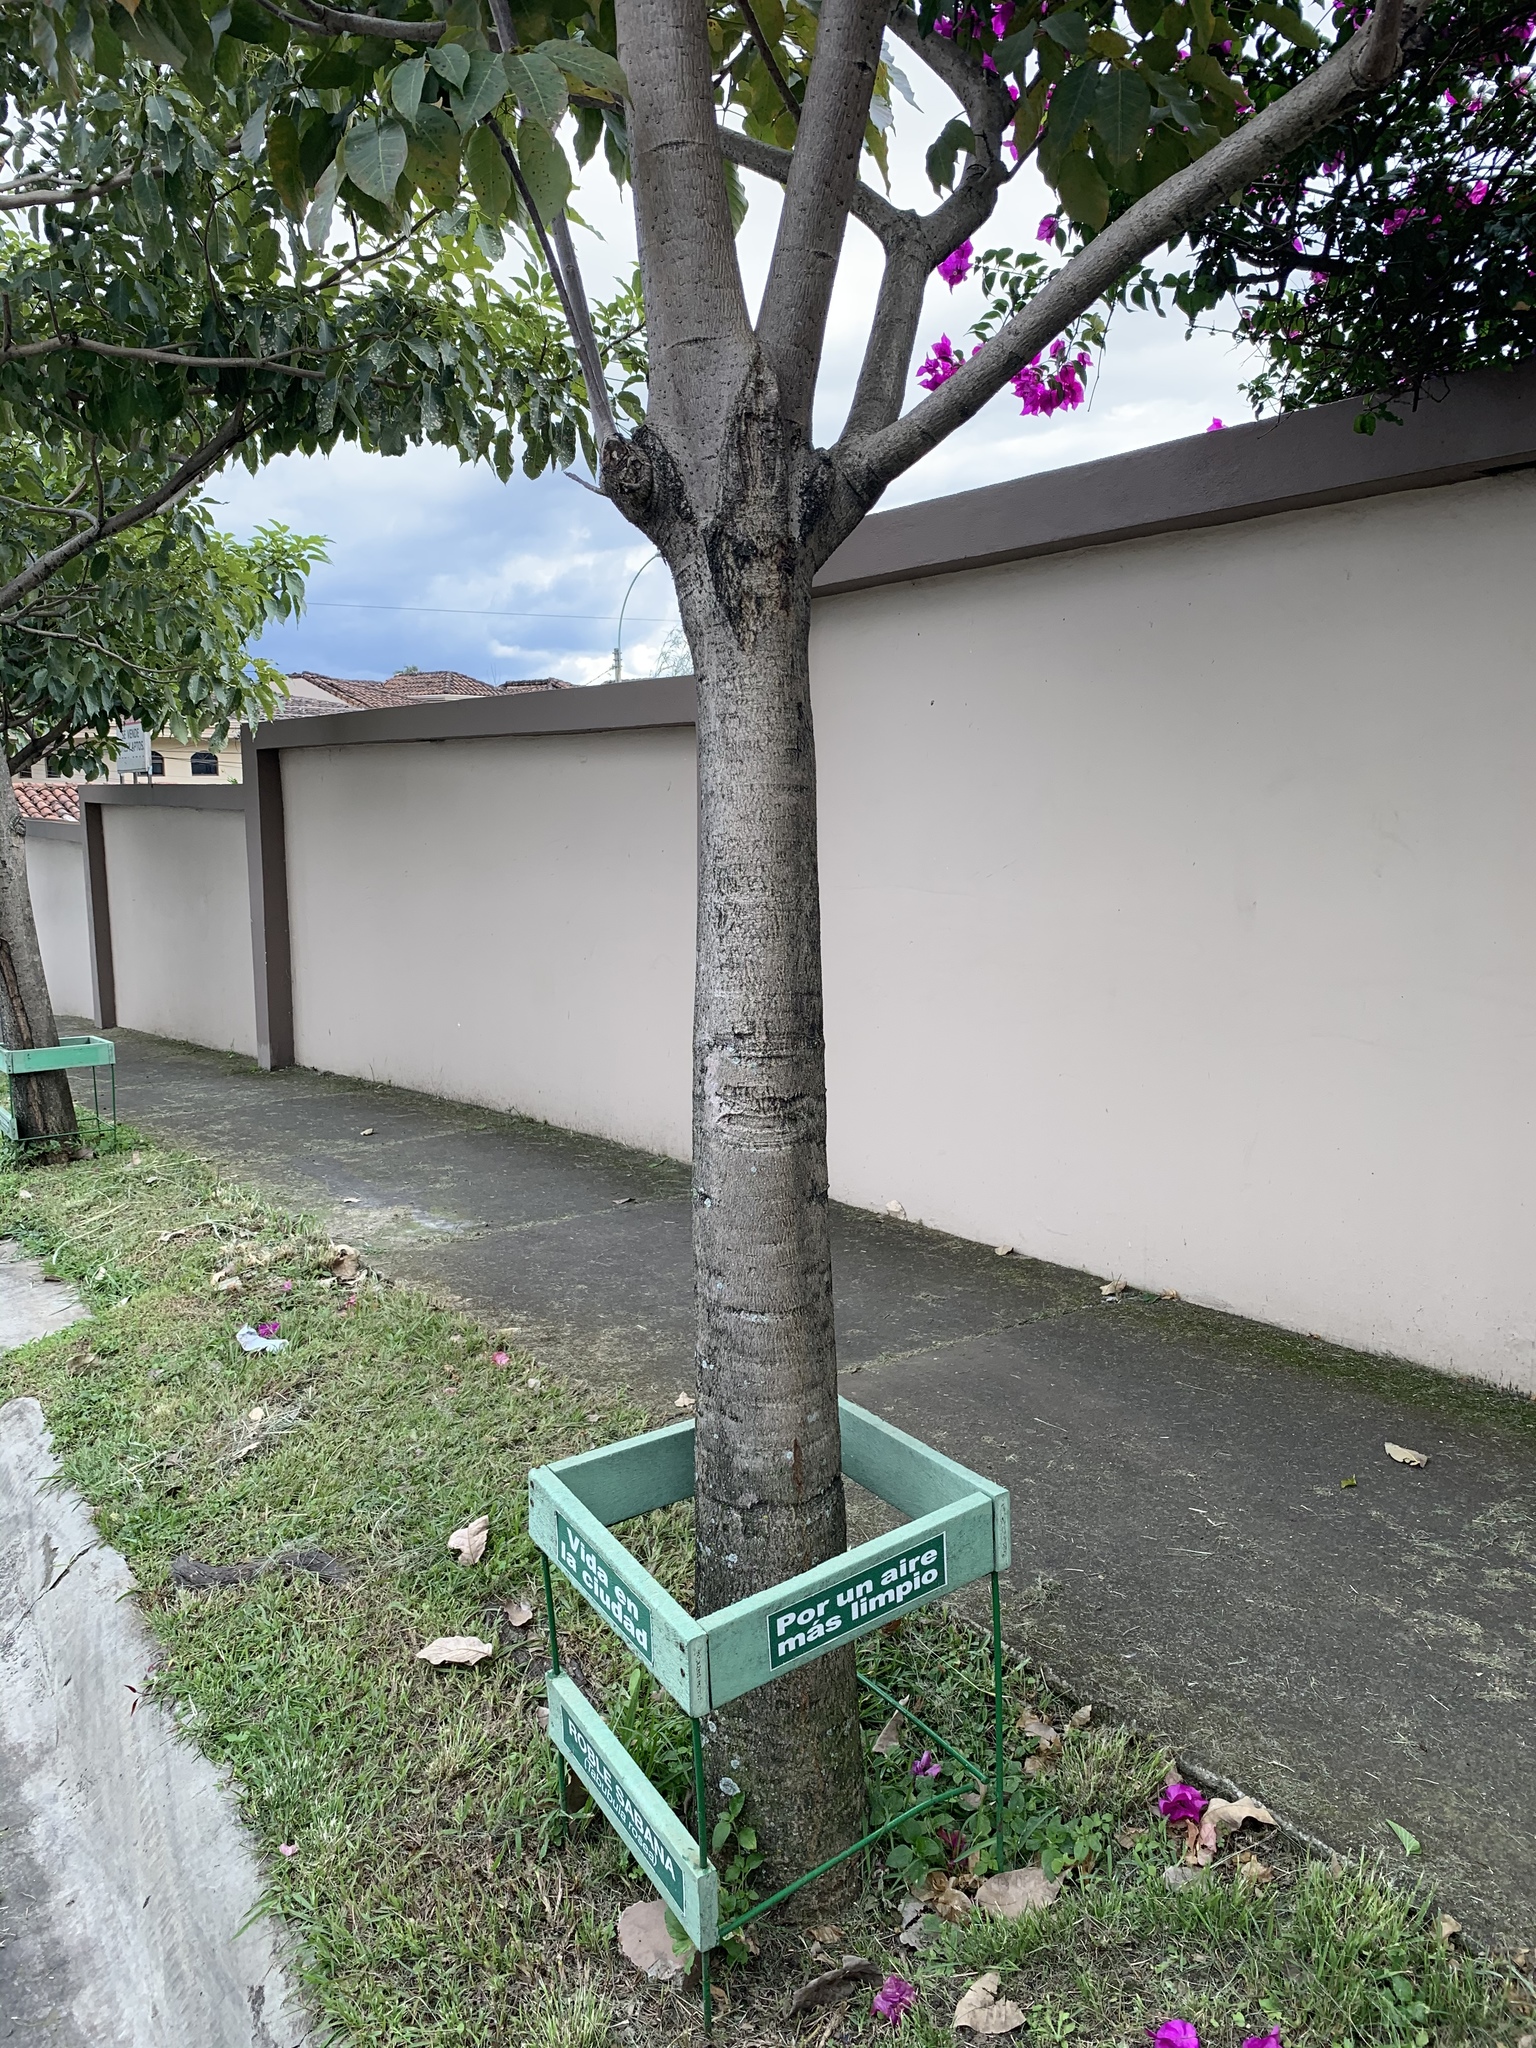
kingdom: Plantae
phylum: Tracheophyta
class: Magnoliopsida
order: Lamiales
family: Bignoniaceae
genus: Tabebuia
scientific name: Tabebuia rosea
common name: Pink poui
